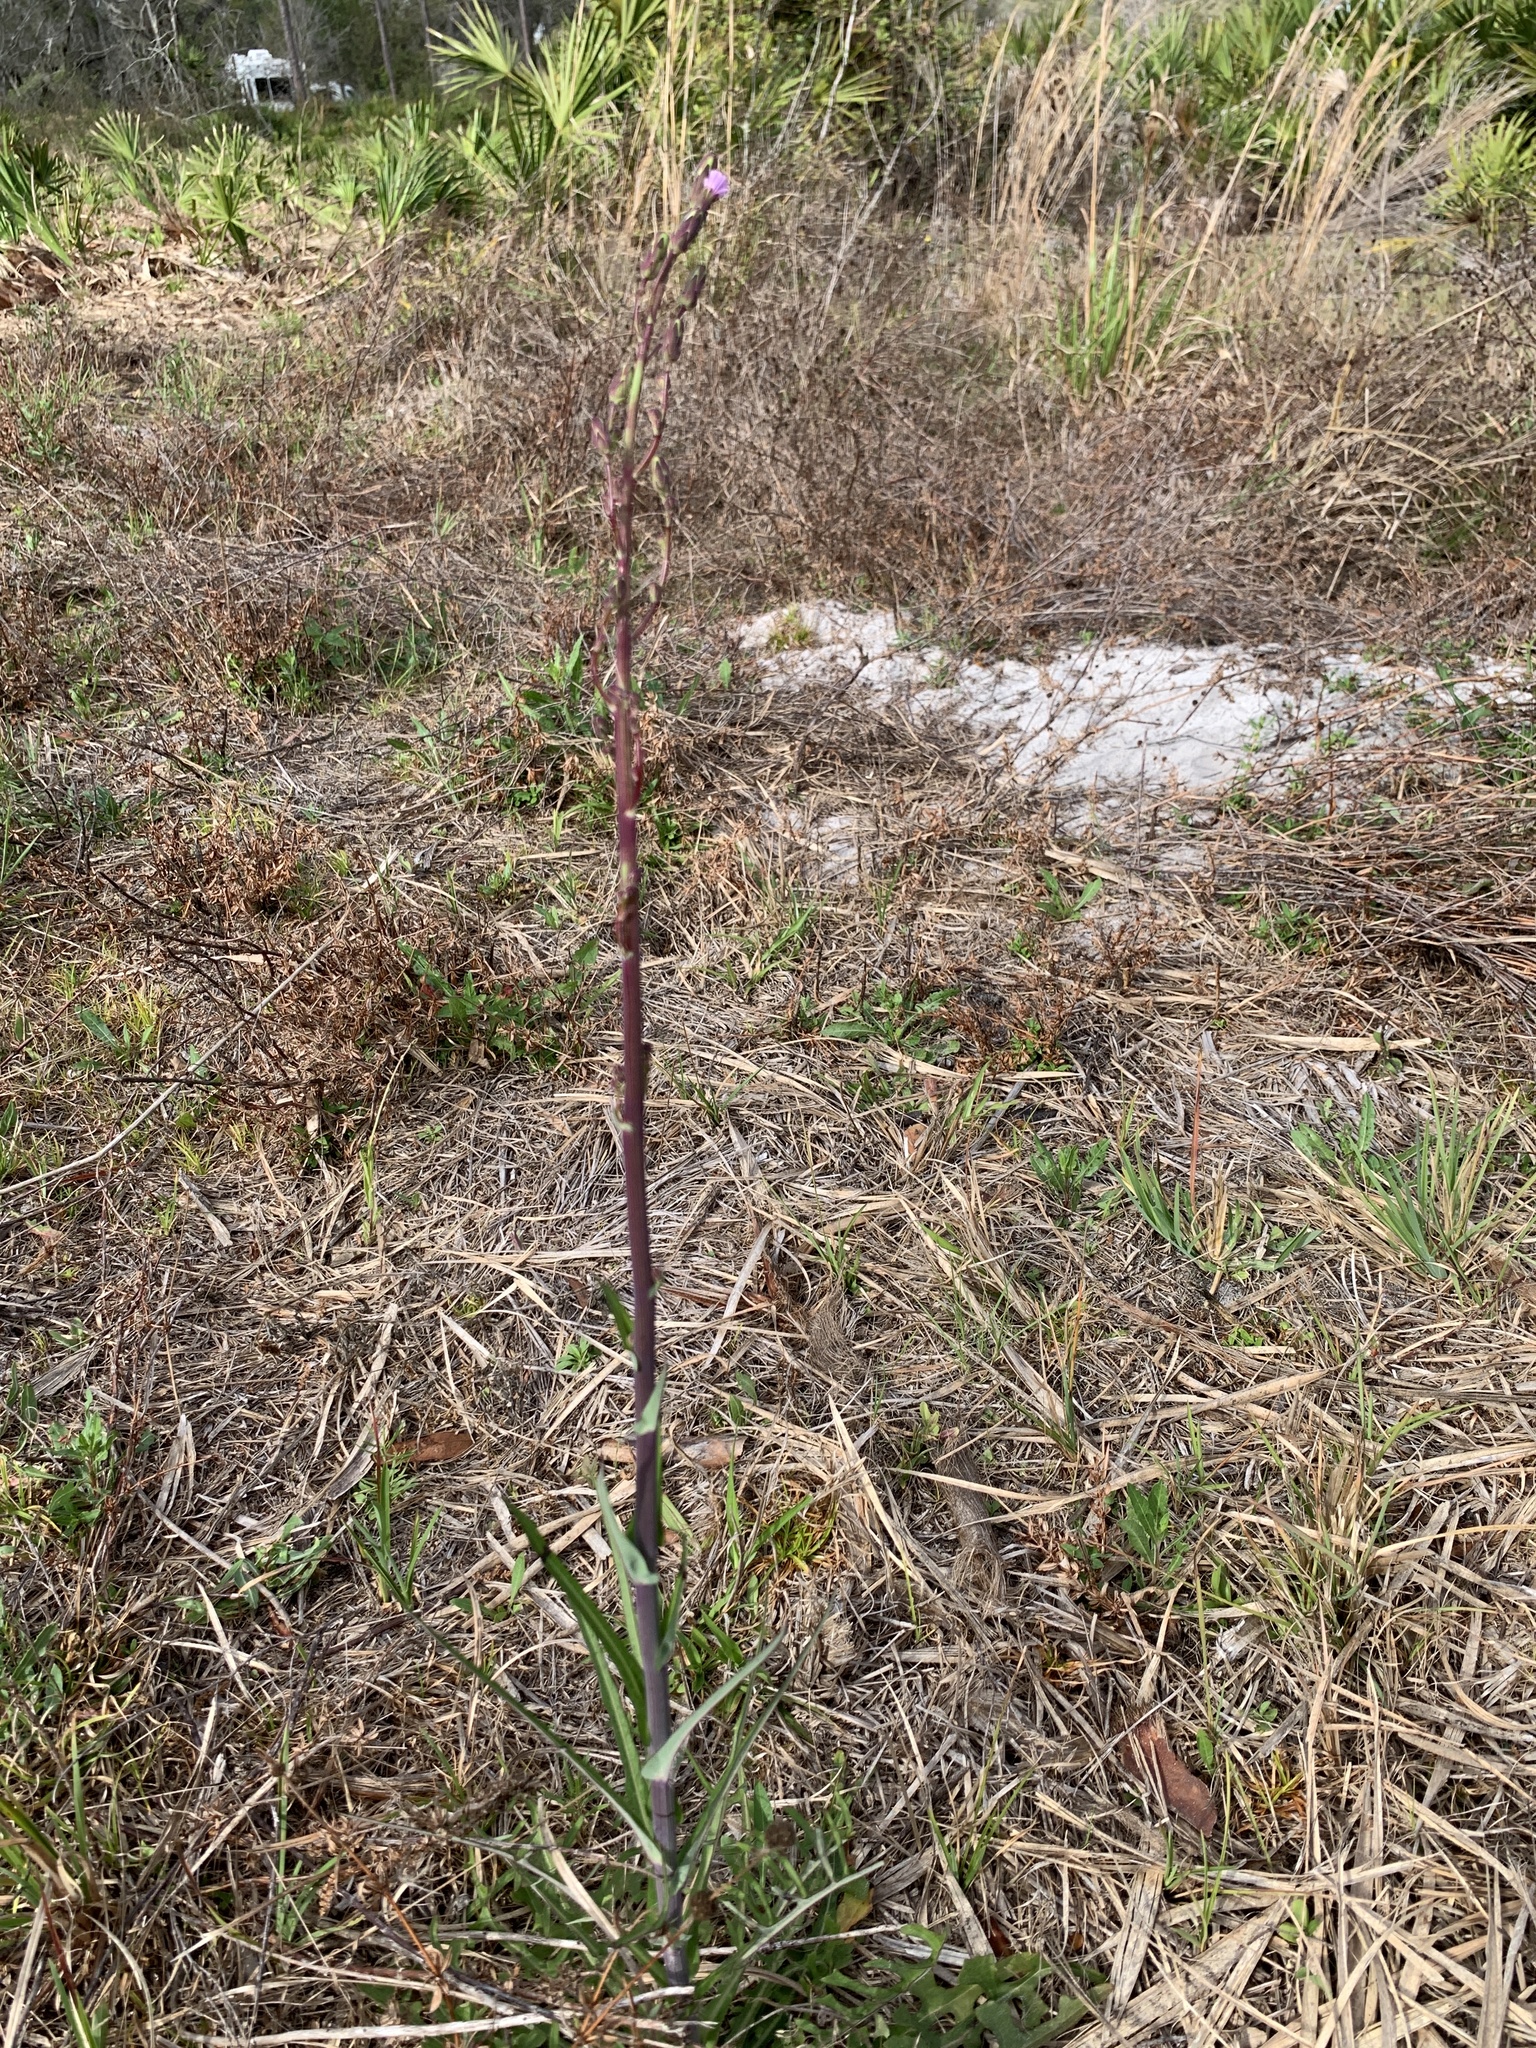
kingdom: Plantae
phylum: Tracheophyta
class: Magnoliopsida
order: Asterales
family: Asteraceae
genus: Lactuca
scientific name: Lactuca graminifolia
